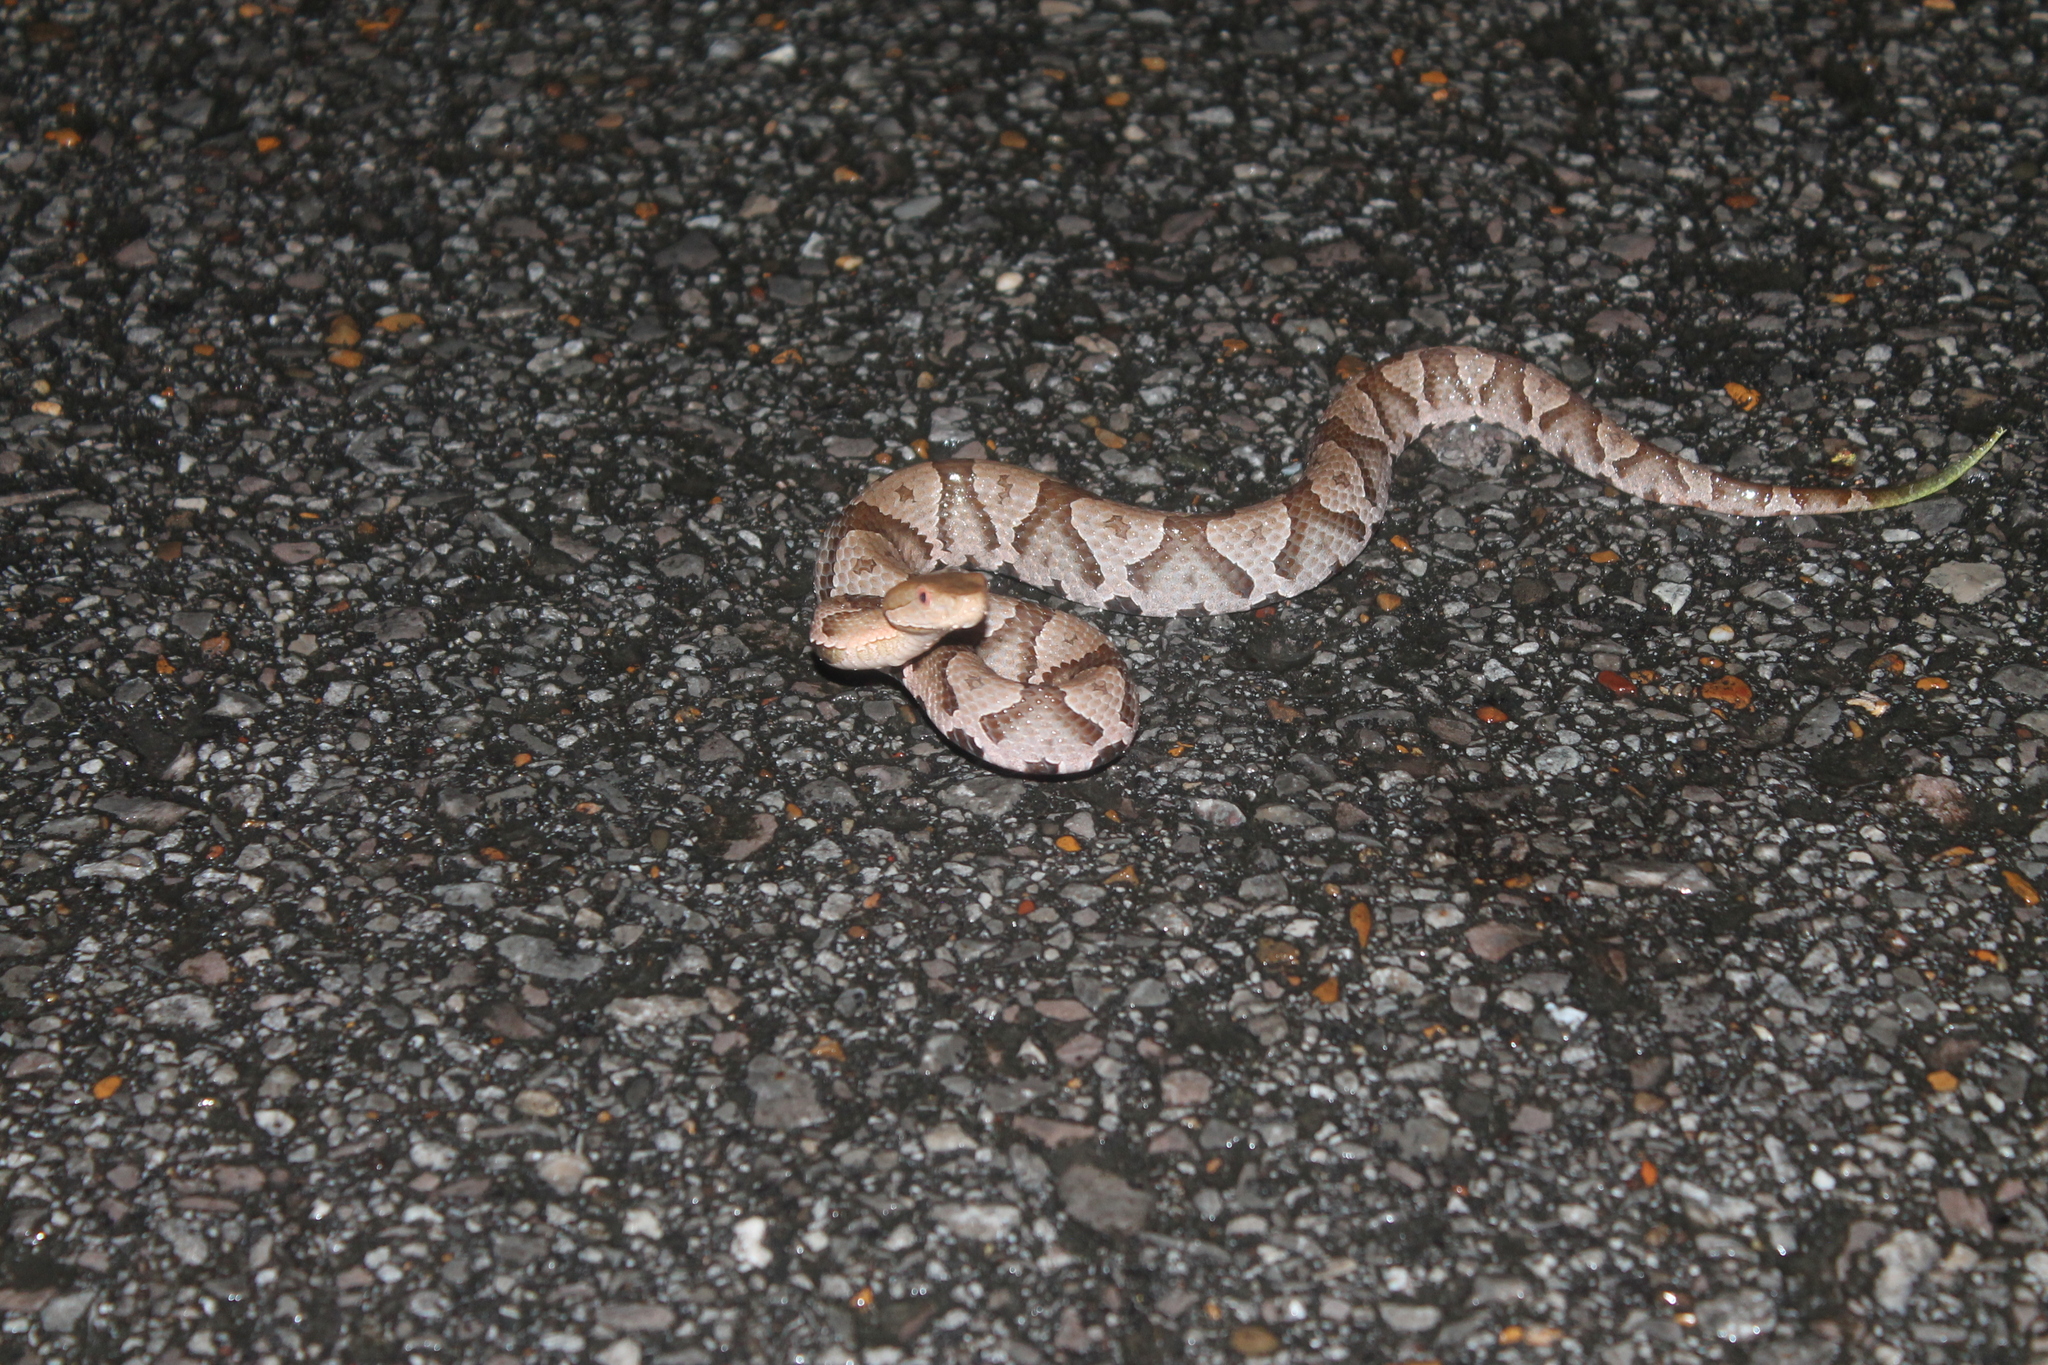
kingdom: Animalia
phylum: Chordata
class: Squamata
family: Viperidae
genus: Agkistrodon
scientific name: Agkistrodon contortrix
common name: Northern copperhead
